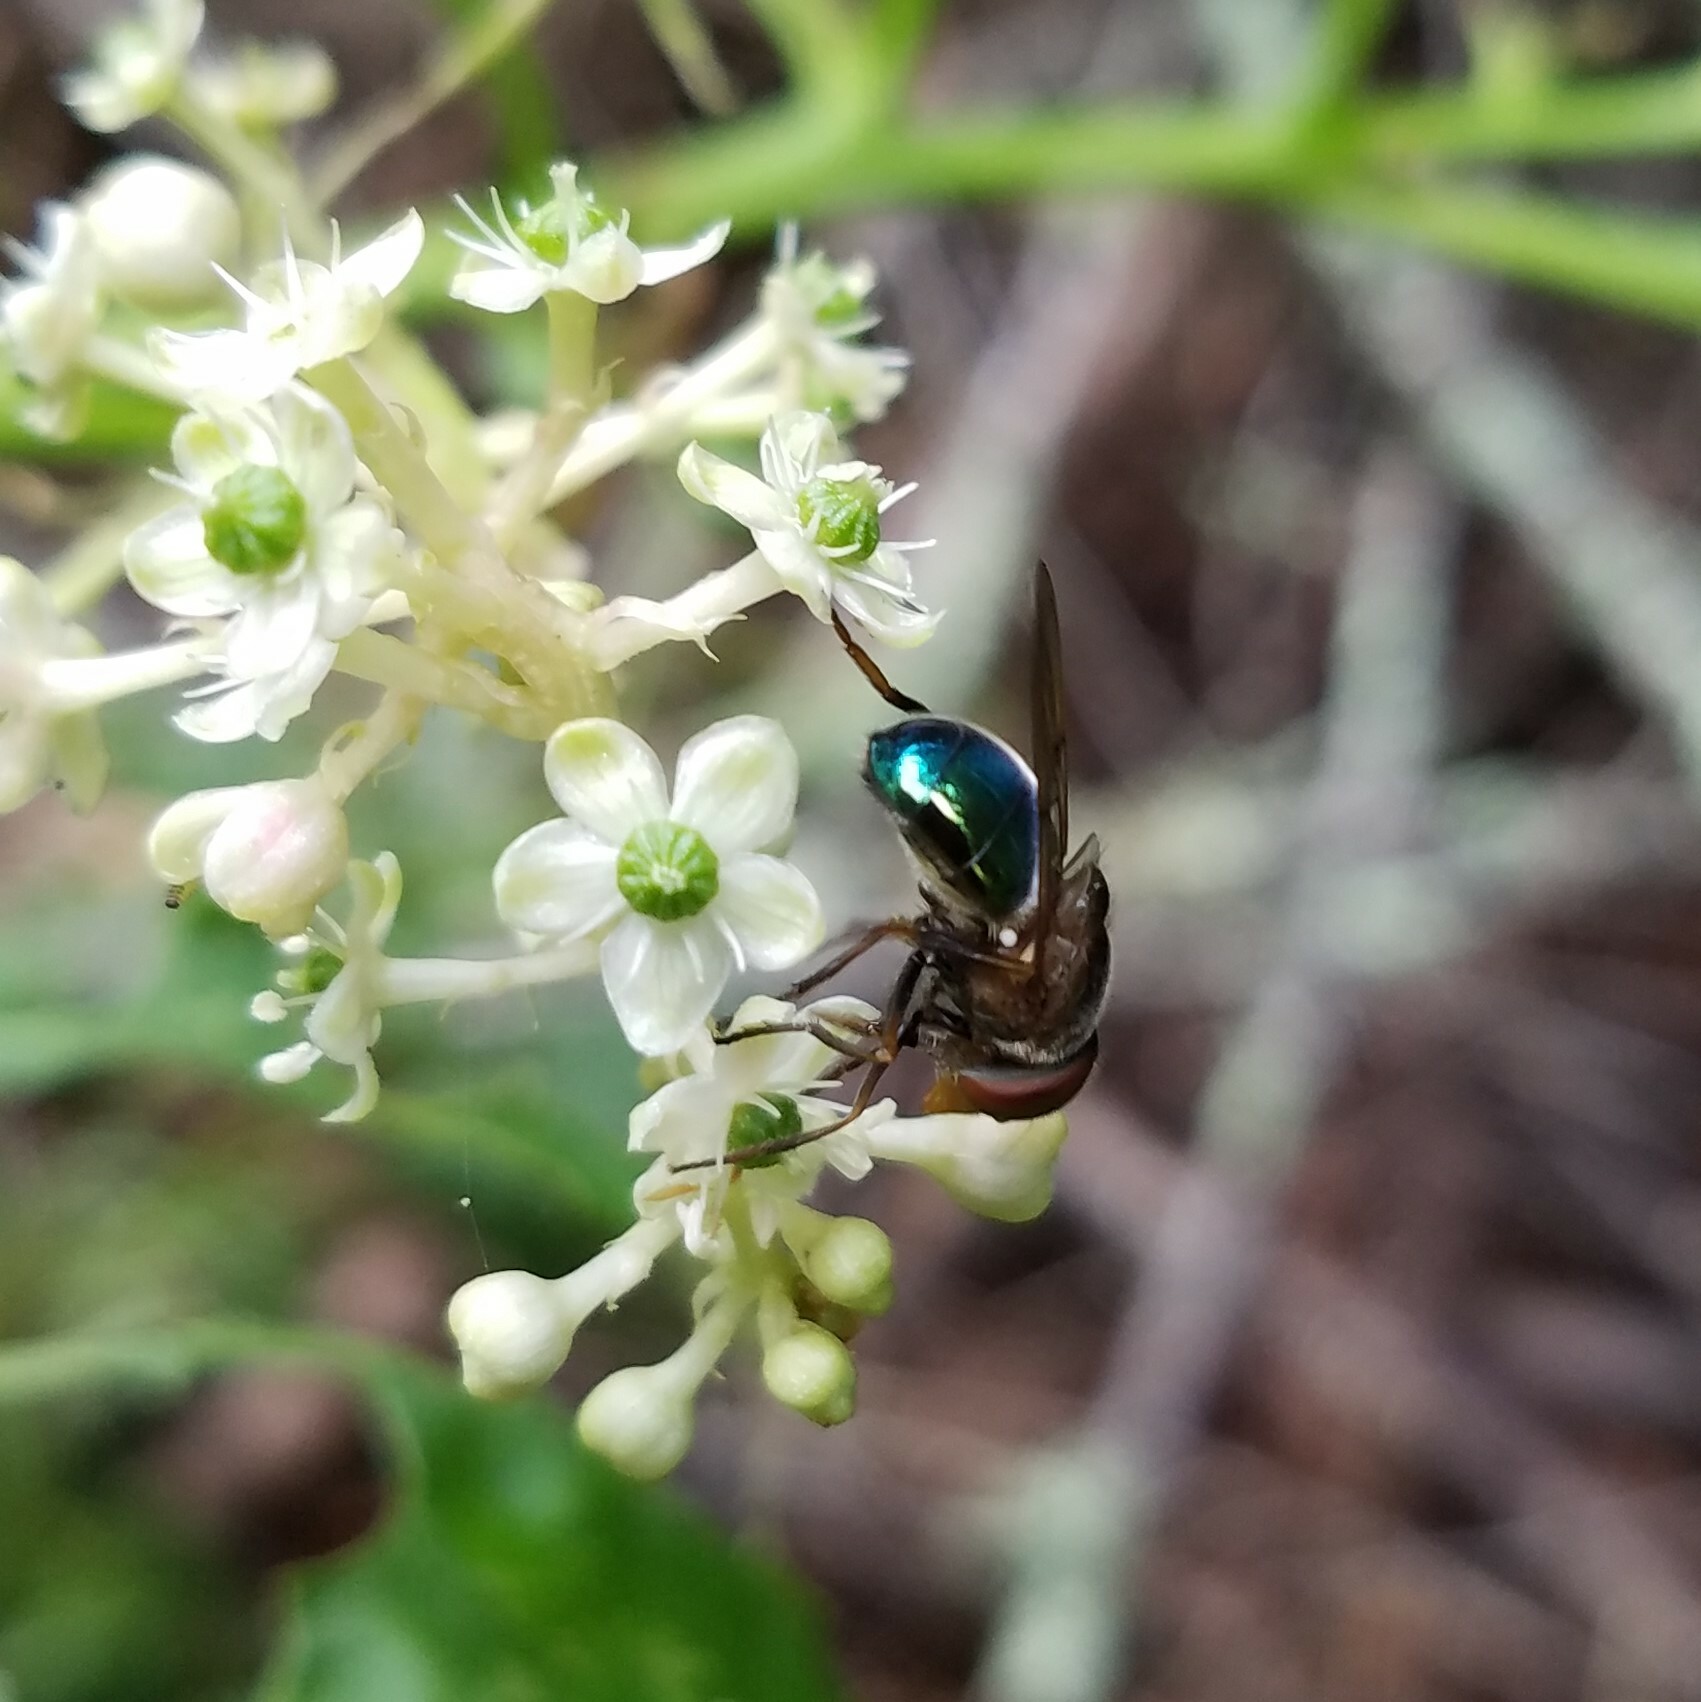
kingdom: Animalia
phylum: Arthropoda
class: Insecta
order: Diptera
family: Syrphidae
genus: Copestylum
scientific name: Copestylum vesicularium
